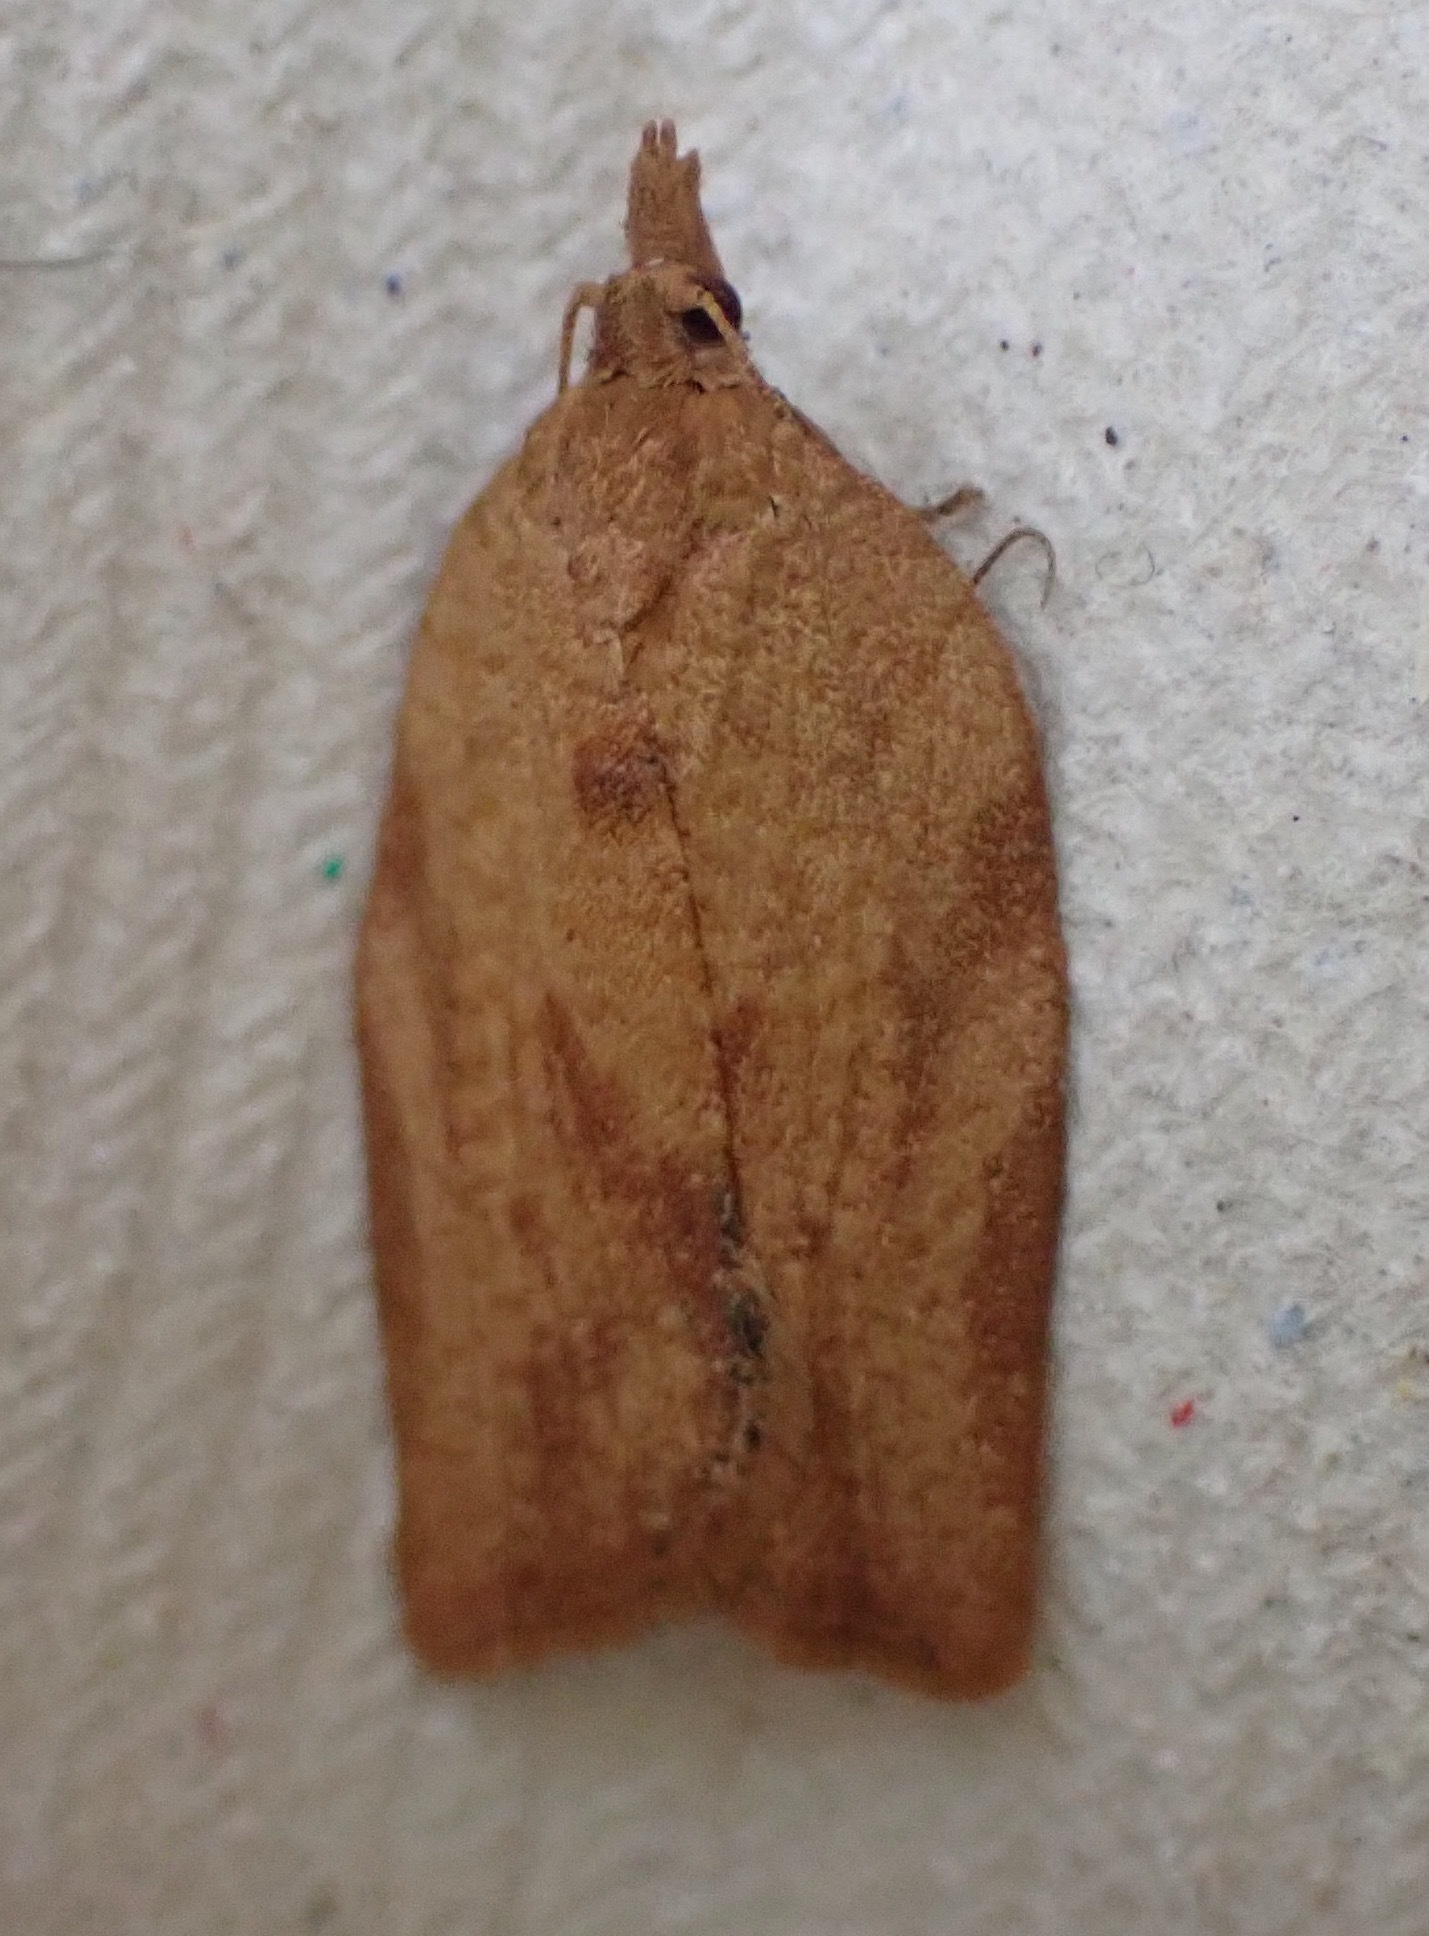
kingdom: Animalia
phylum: Arthropoda
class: Insecta
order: Lepidoptera
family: Tortricidae
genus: Epiphyas
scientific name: Epiphyas postvittana
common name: Light brown apple moth
